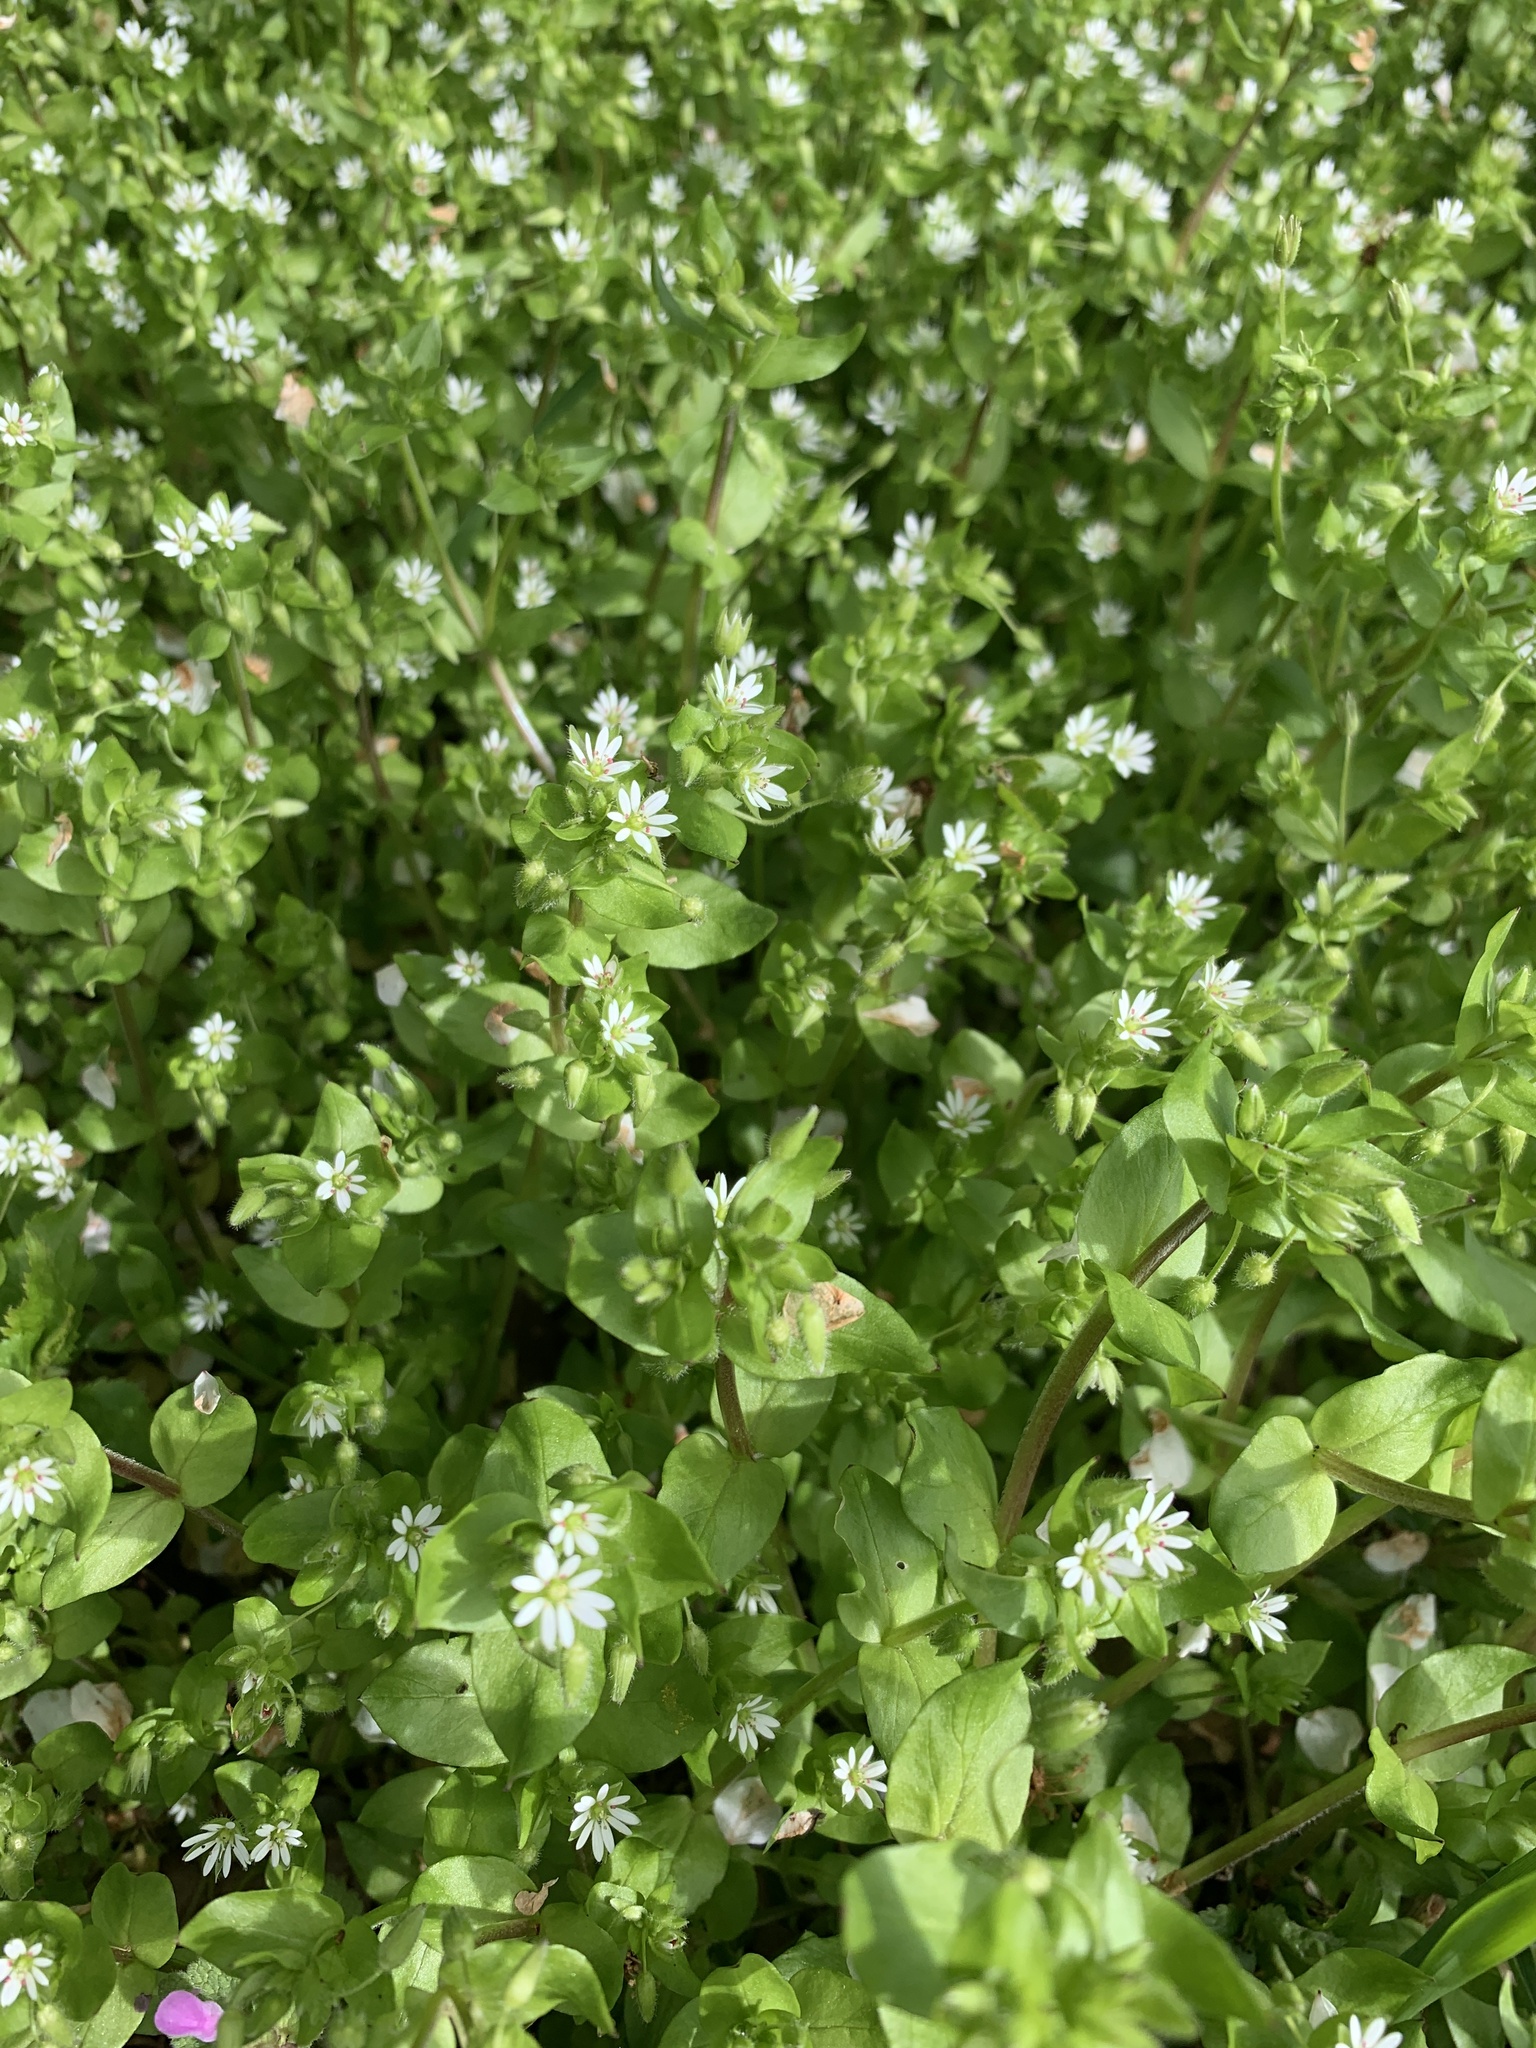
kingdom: Plantae
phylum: Tracheophyta
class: Magnoliopsida
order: Caryophyllales
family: Caryophyllaceae
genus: Stellaria
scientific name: Stellaria media
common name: Common chickweed
